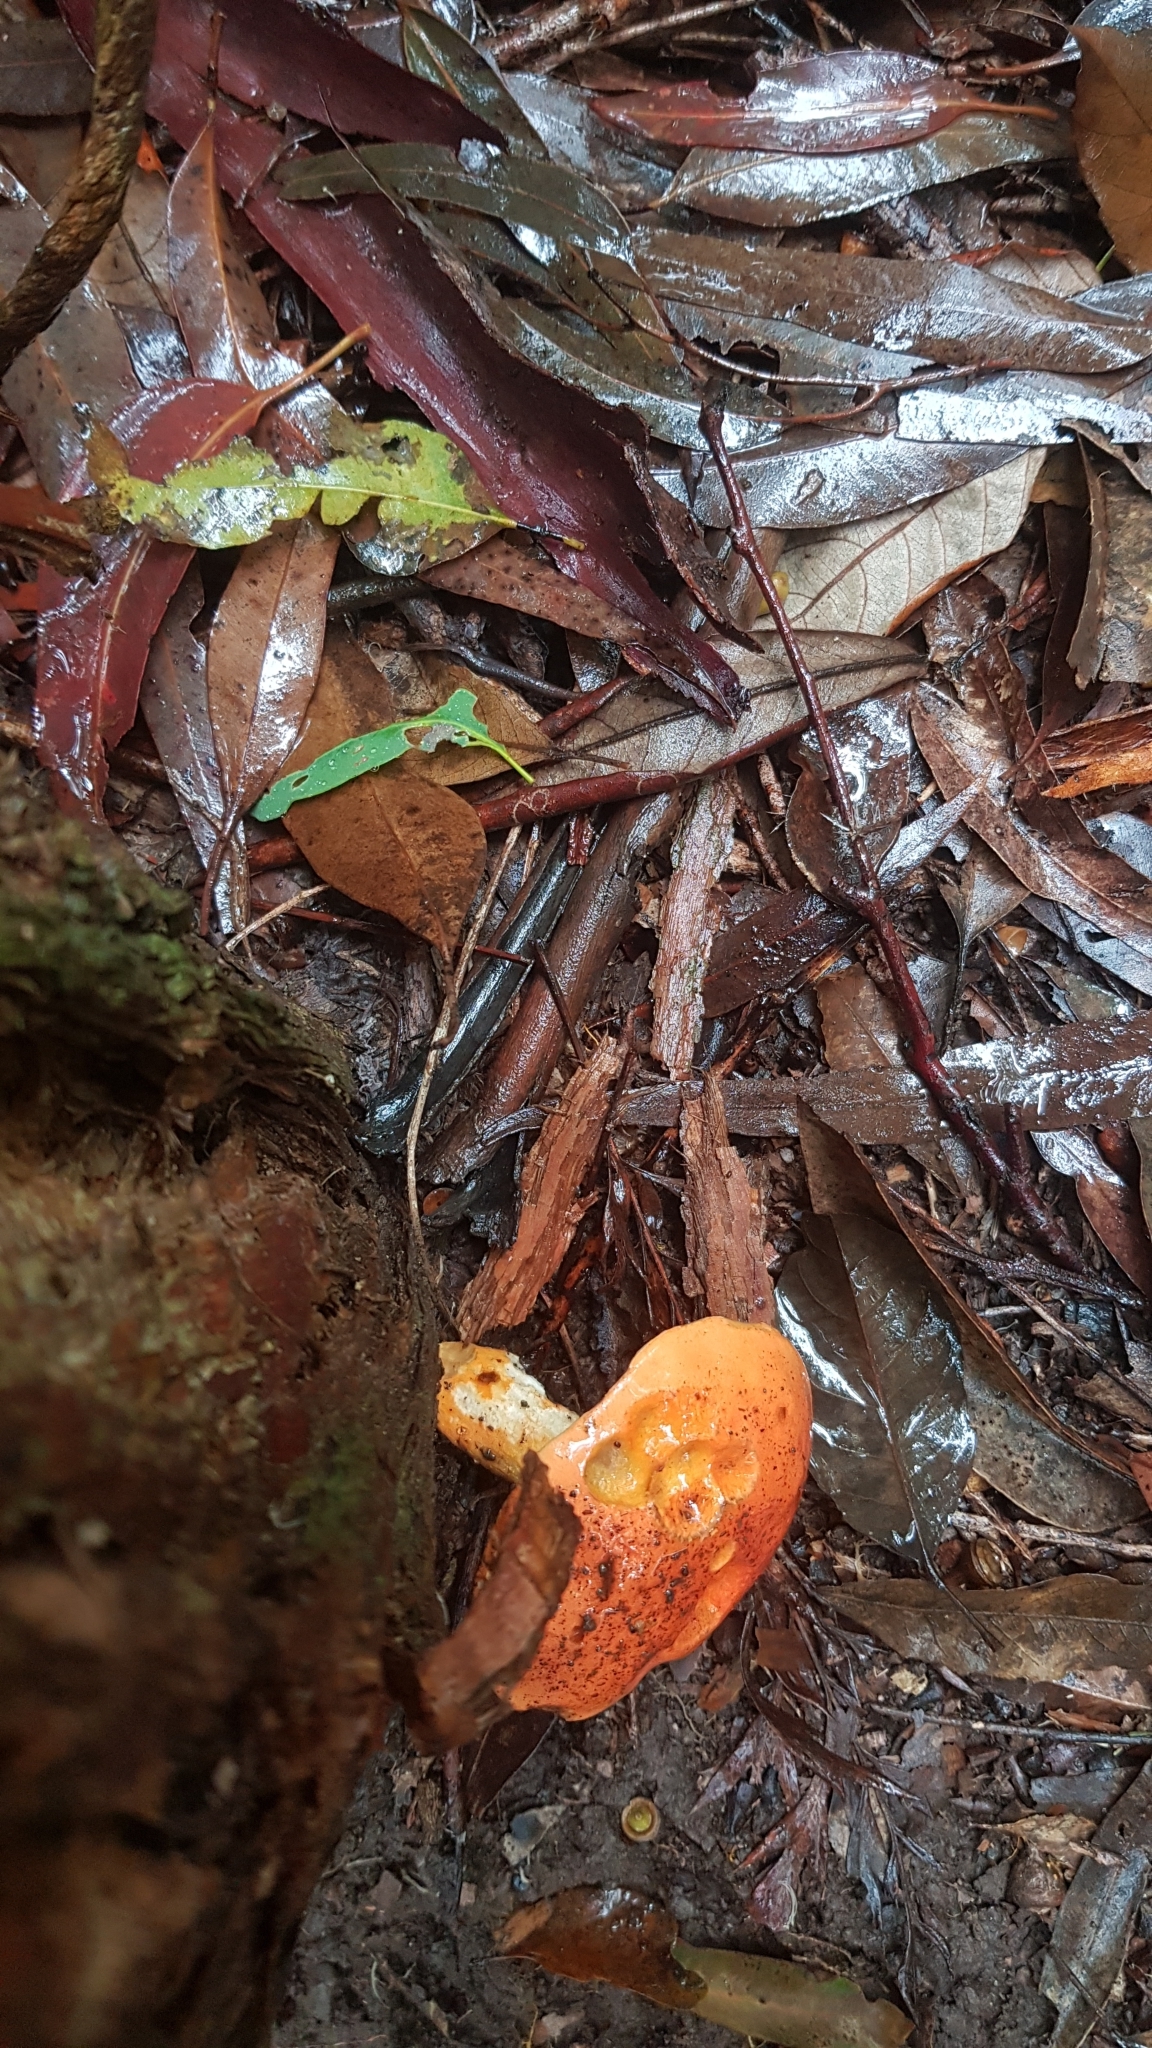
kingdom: Fungi
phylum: Basidiomycota
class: Agaricomycetes
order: Boletales
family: Boletaceae
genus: Tylopilus
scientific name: Tylopilus balloui
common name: Burnt-orange bolete
